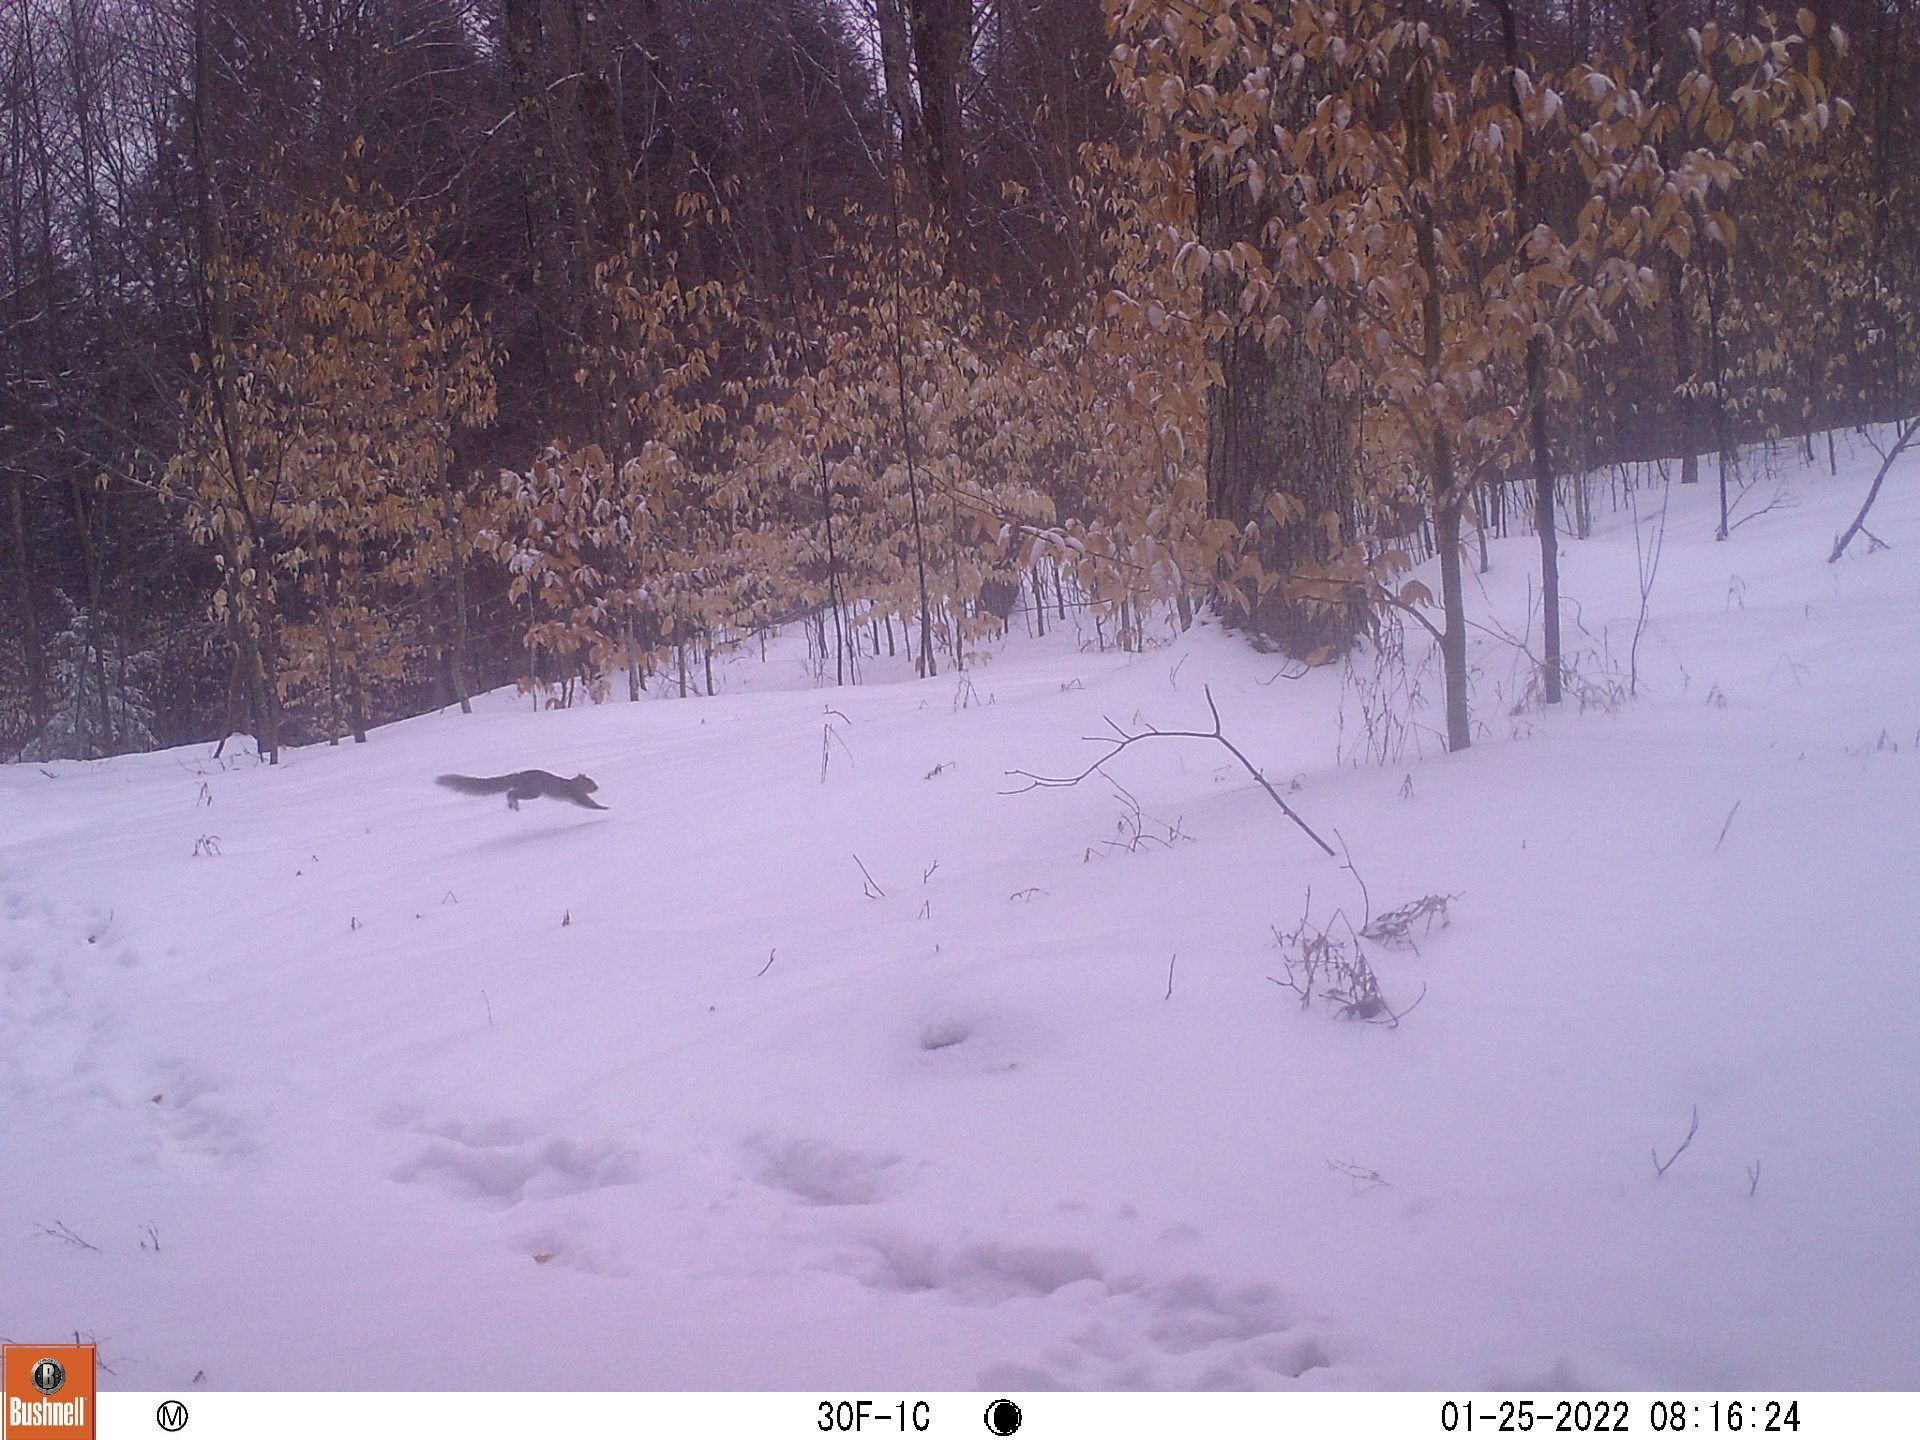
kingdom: Animalia
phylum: Chordata
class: Mammalia
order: Rodentia
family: Sciuridae
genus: Sciurus
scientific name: Sciurus carolinensis
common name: Eastern gray squirrel
